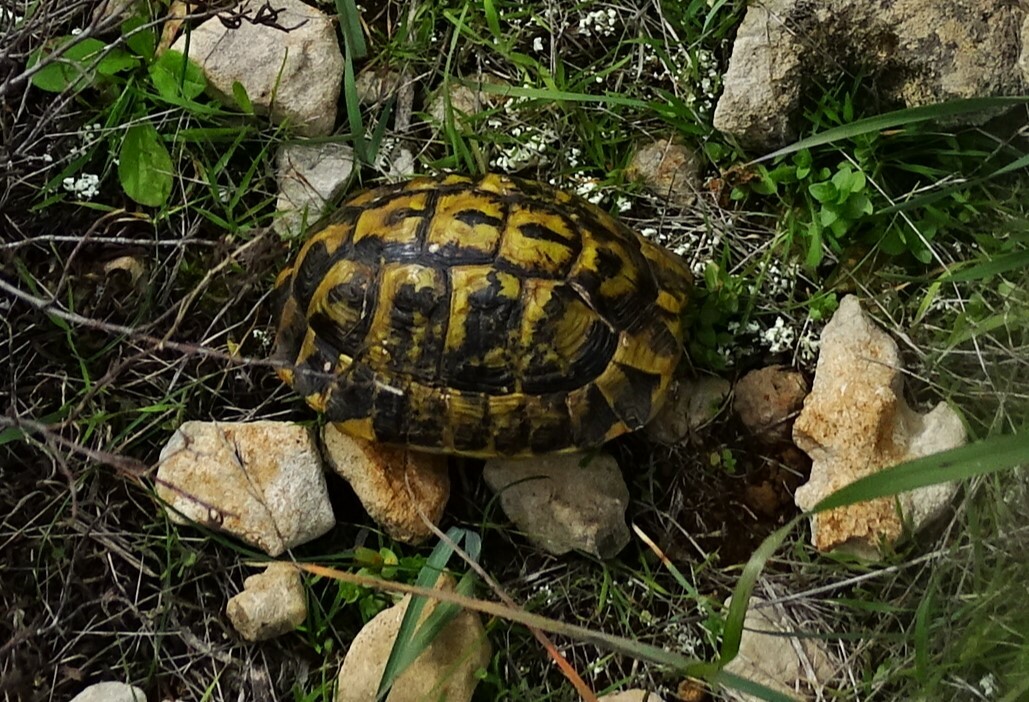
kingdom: Animalia
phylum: Chordata
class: Testudines
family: Testudinidae
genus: Testudo
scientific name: Testudo hermanni
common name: Hermann's tortoise
